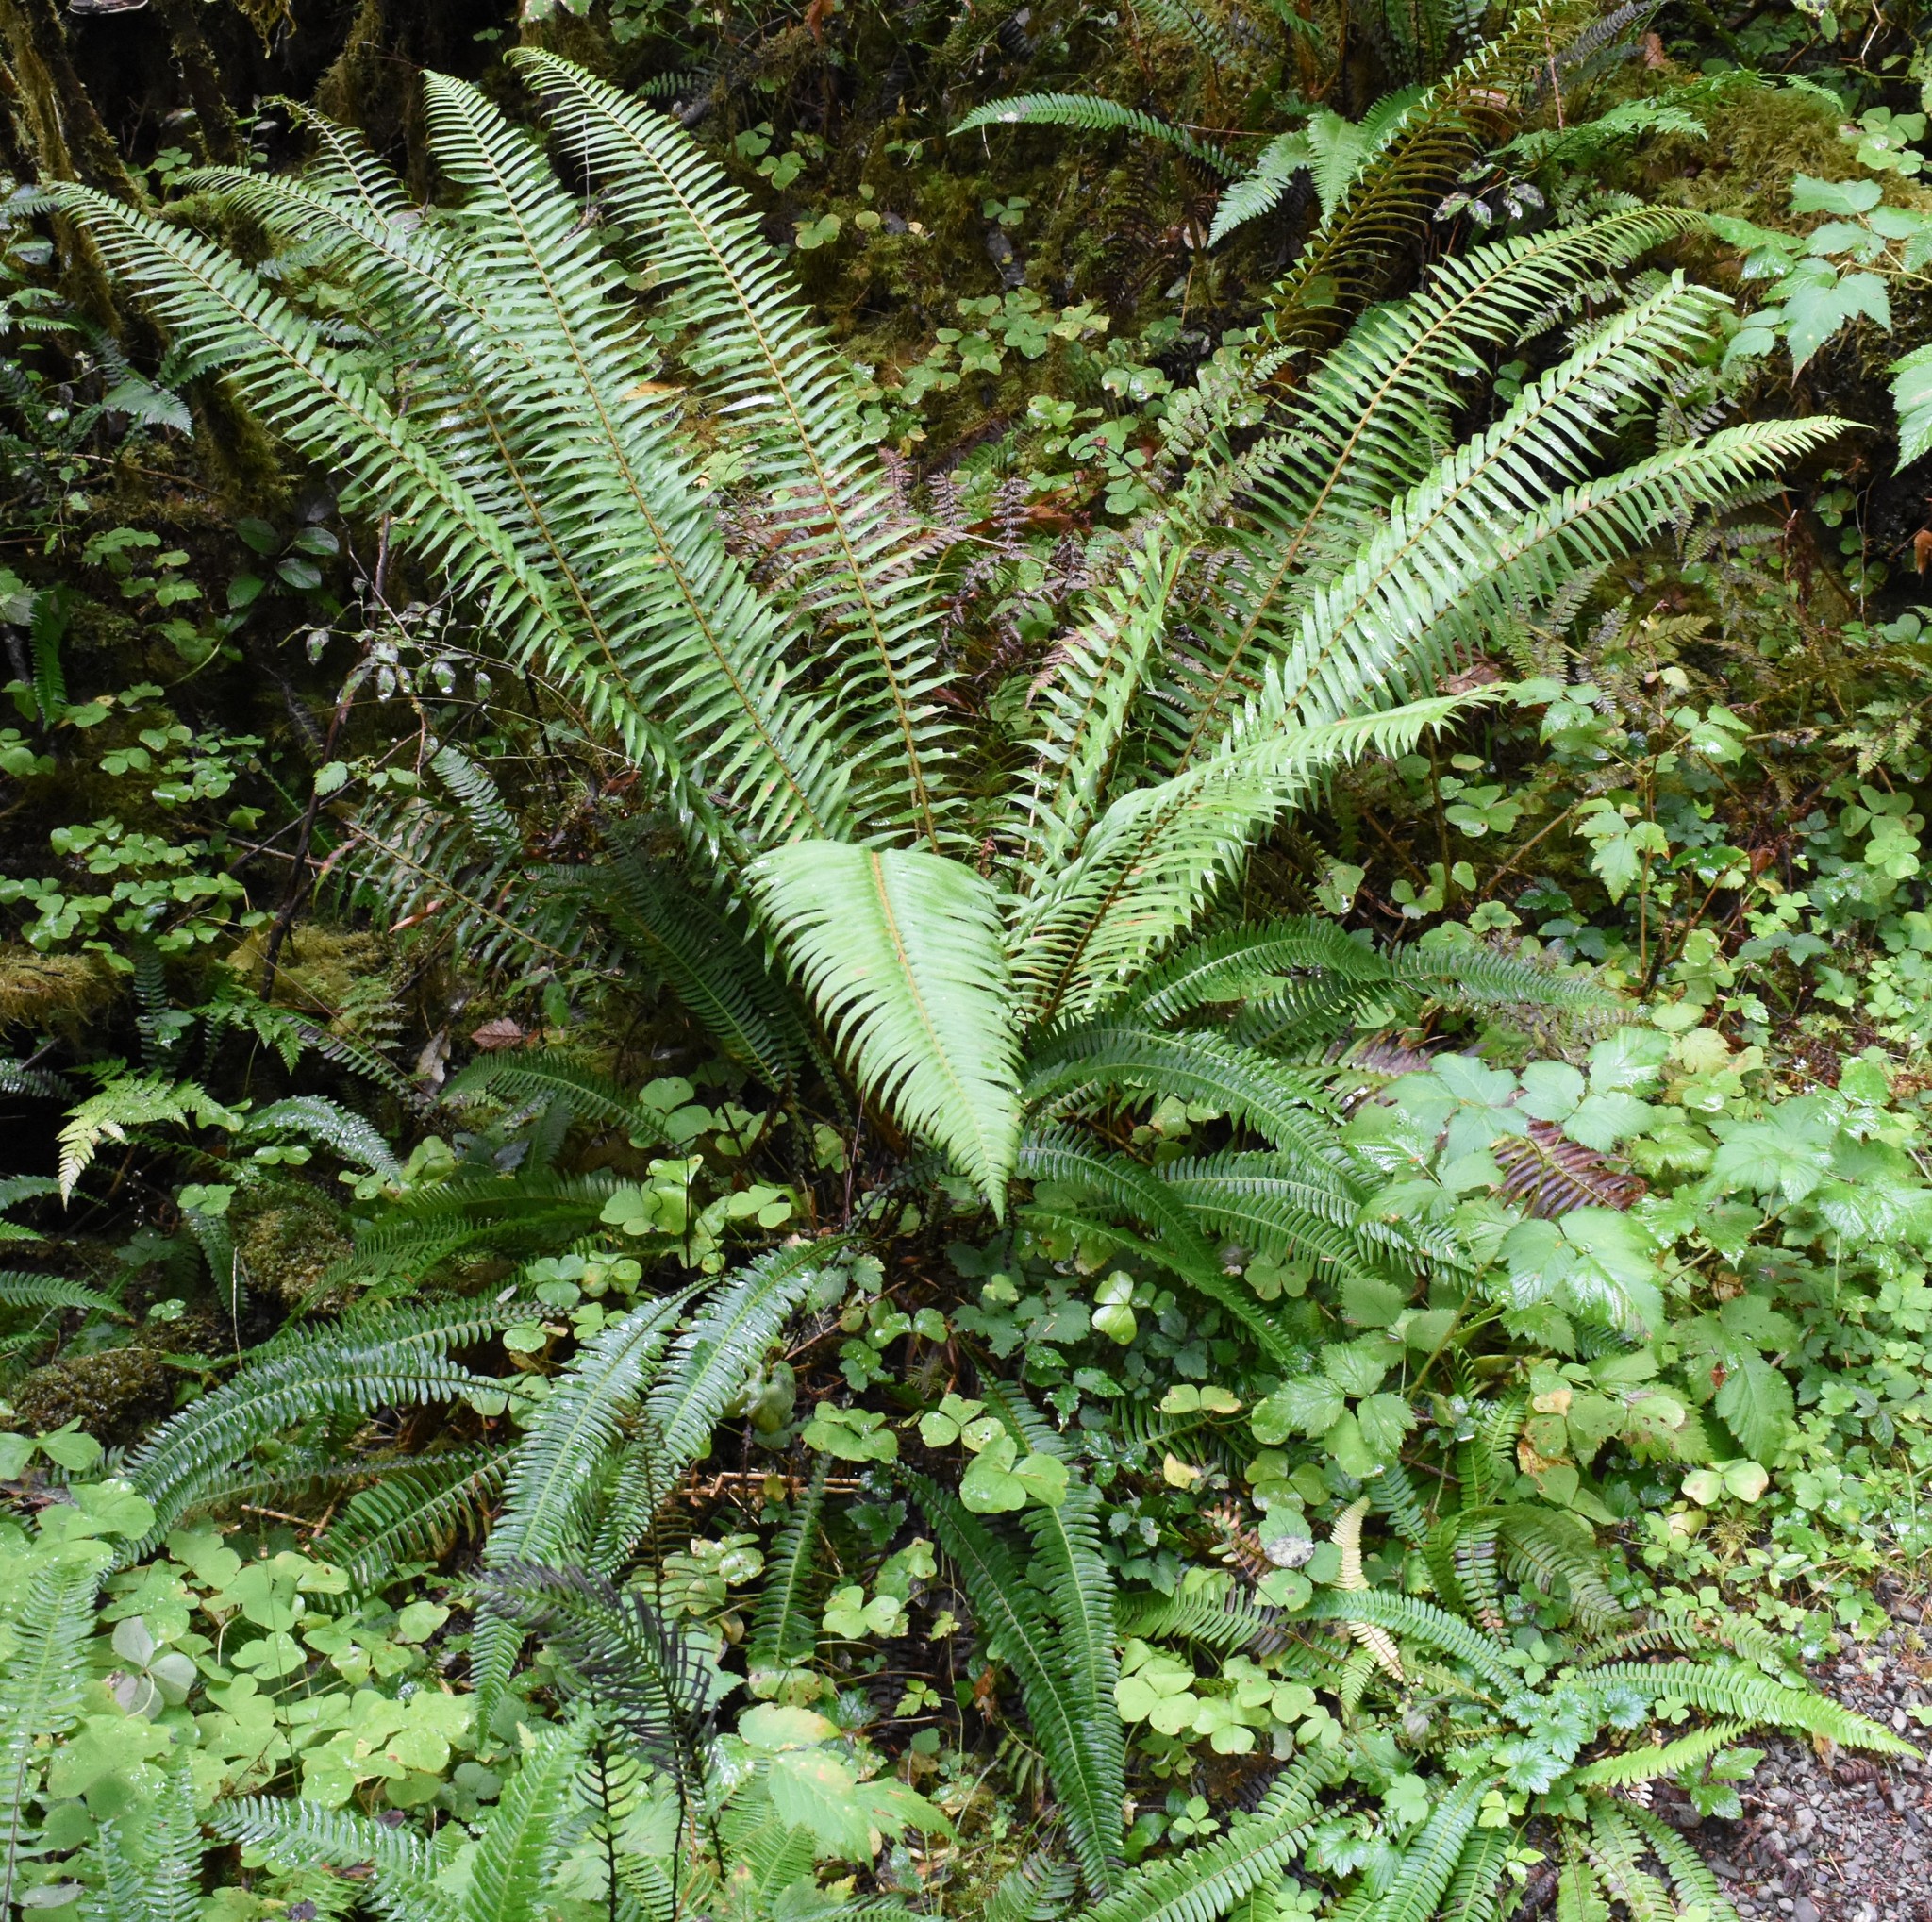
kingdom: Plantae
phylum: Tracheophyta
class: Polypodiopsida
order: Polypodiales
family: Dryopteridaceae
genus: Polystichum
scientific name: Polystichum munitum
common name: Western sword-fern
